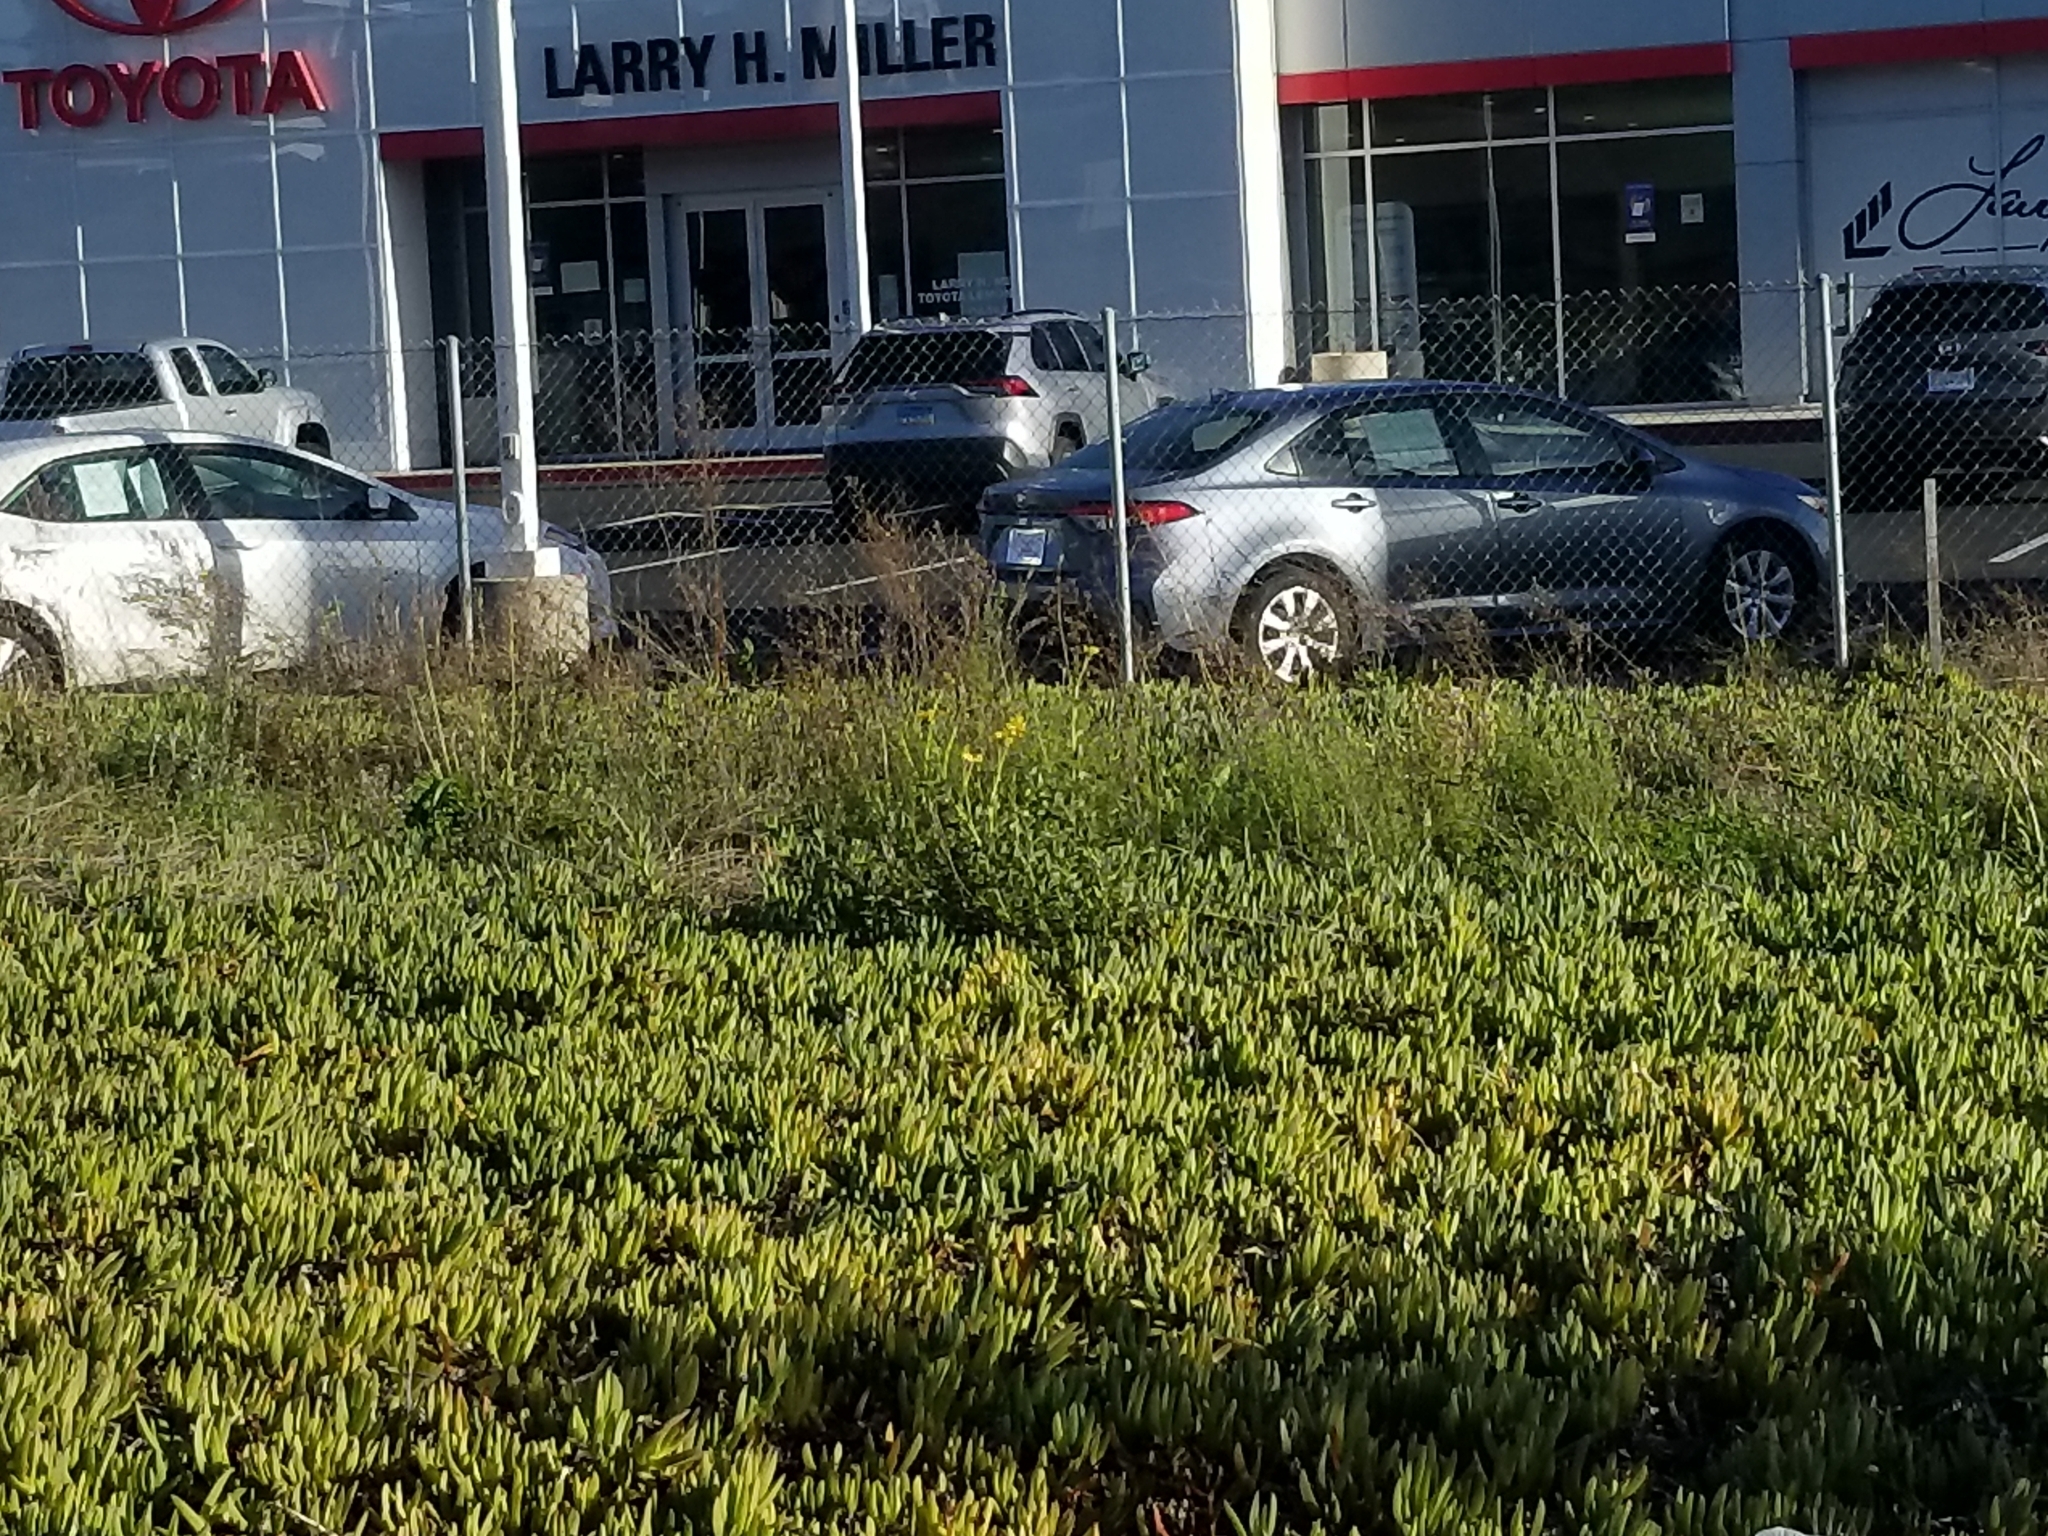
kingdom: Plantae
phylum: Tracheophyta
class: Magnoliopsida
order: Asterales
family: Asteraceae
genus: Encelia
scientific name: Encelia californica
